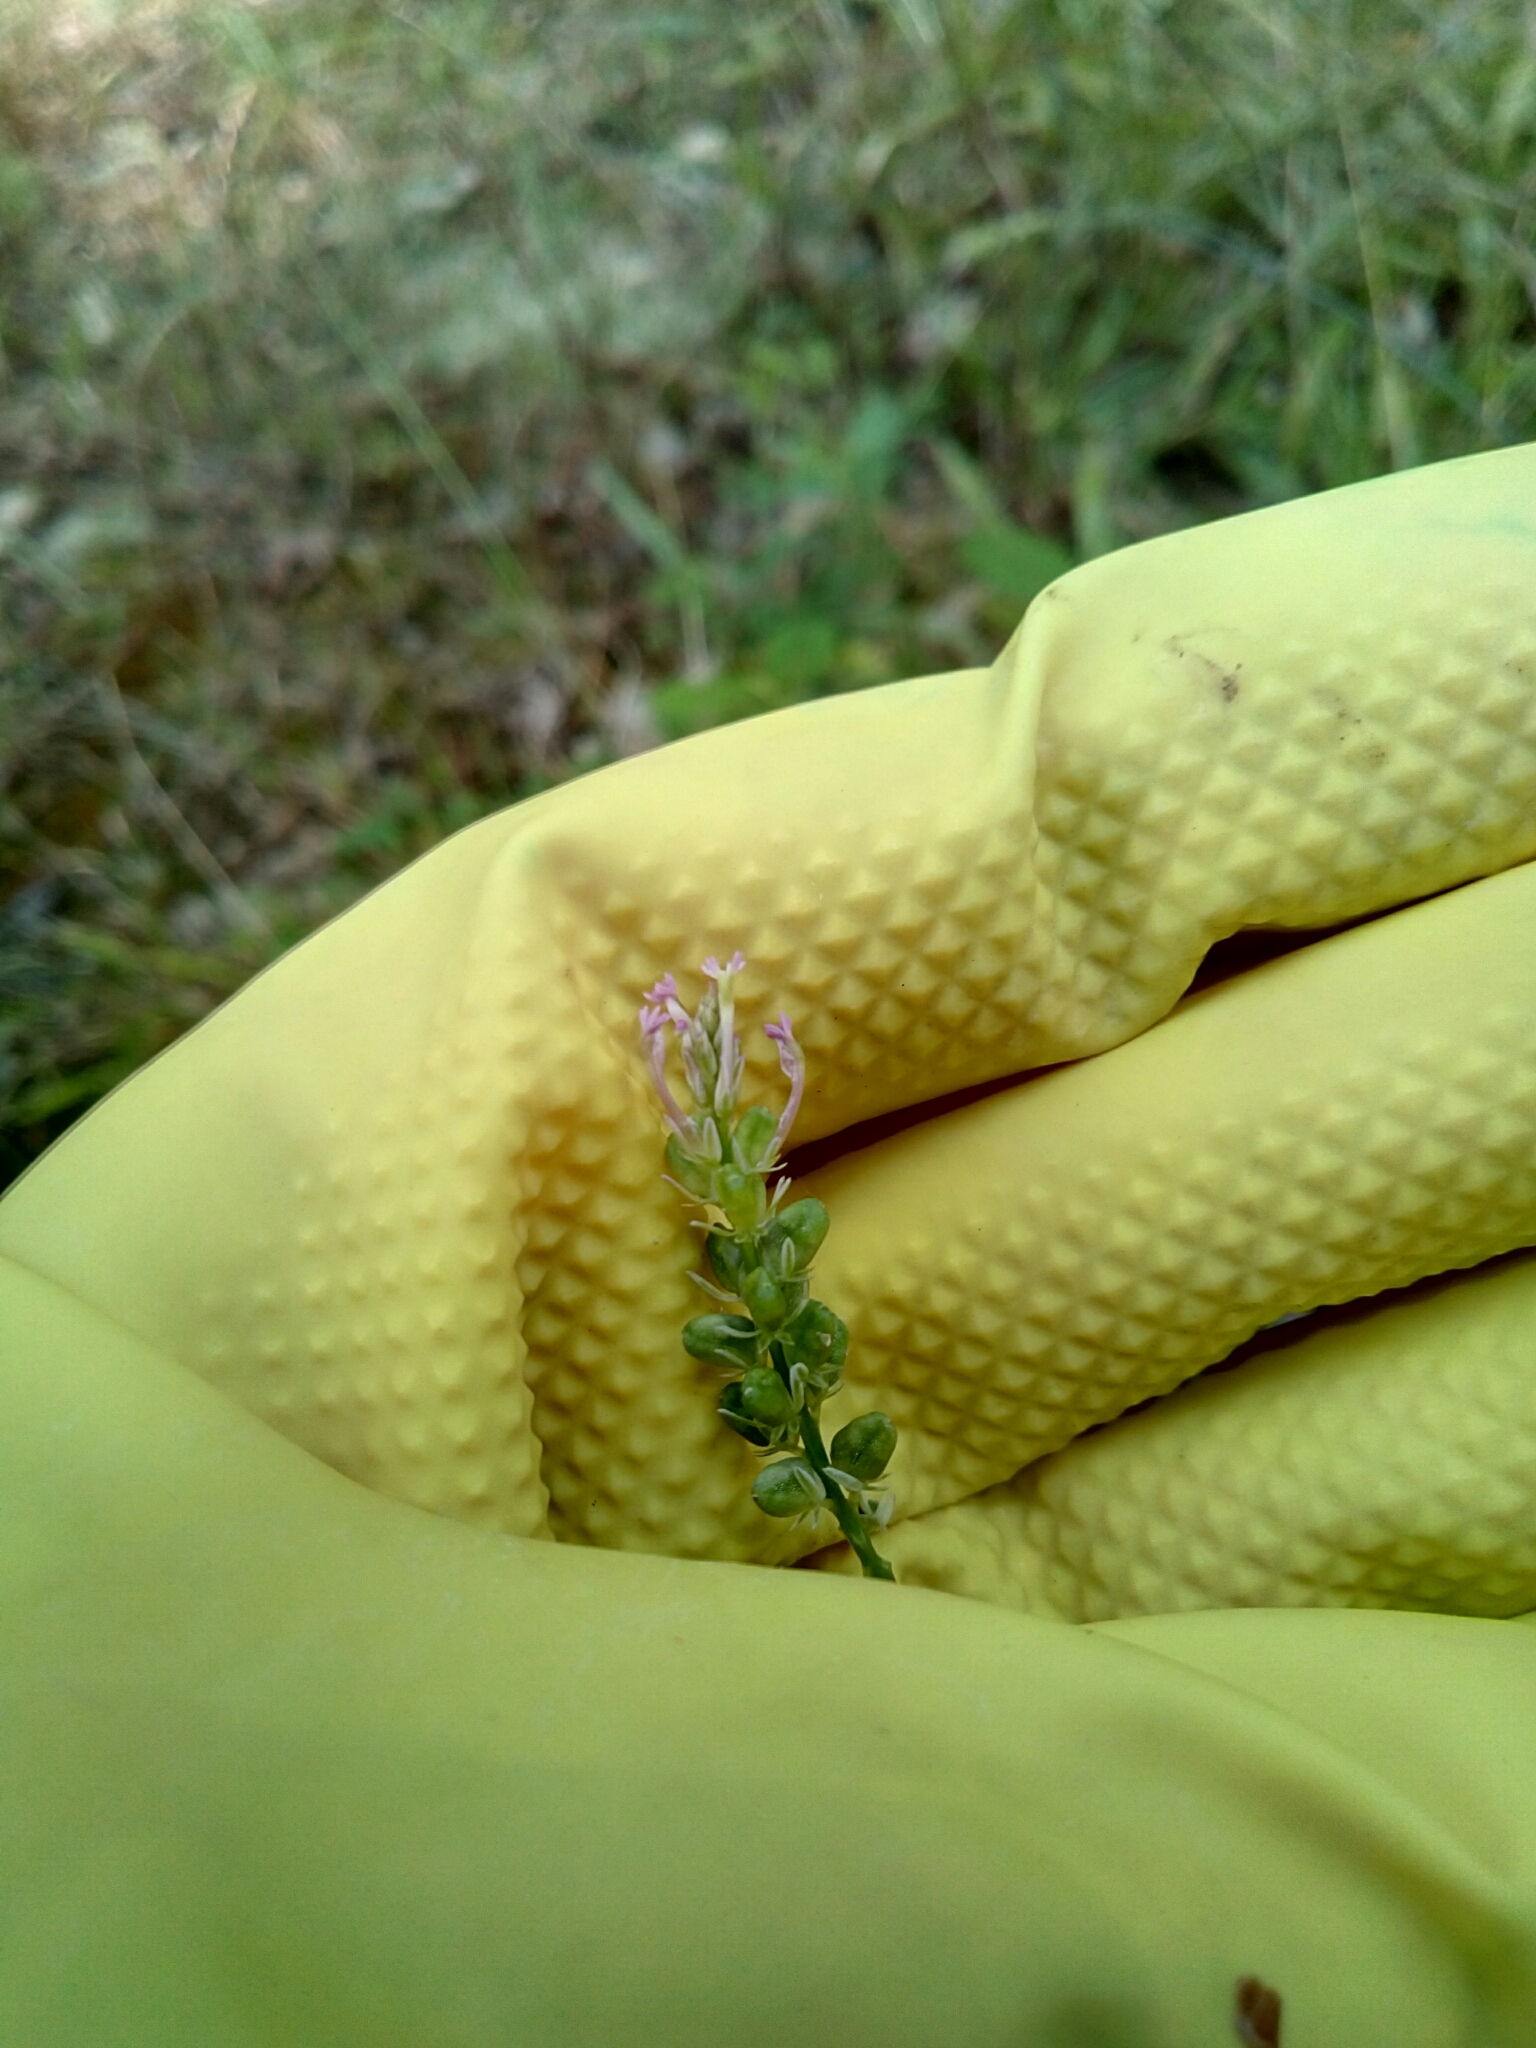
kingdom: Plantae
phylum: Tracheophyta
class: Magnoliopsida
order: Fabales
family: Polygalaceae
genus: Polygala
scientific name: Polygala incarnata
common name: Pink milkwort
